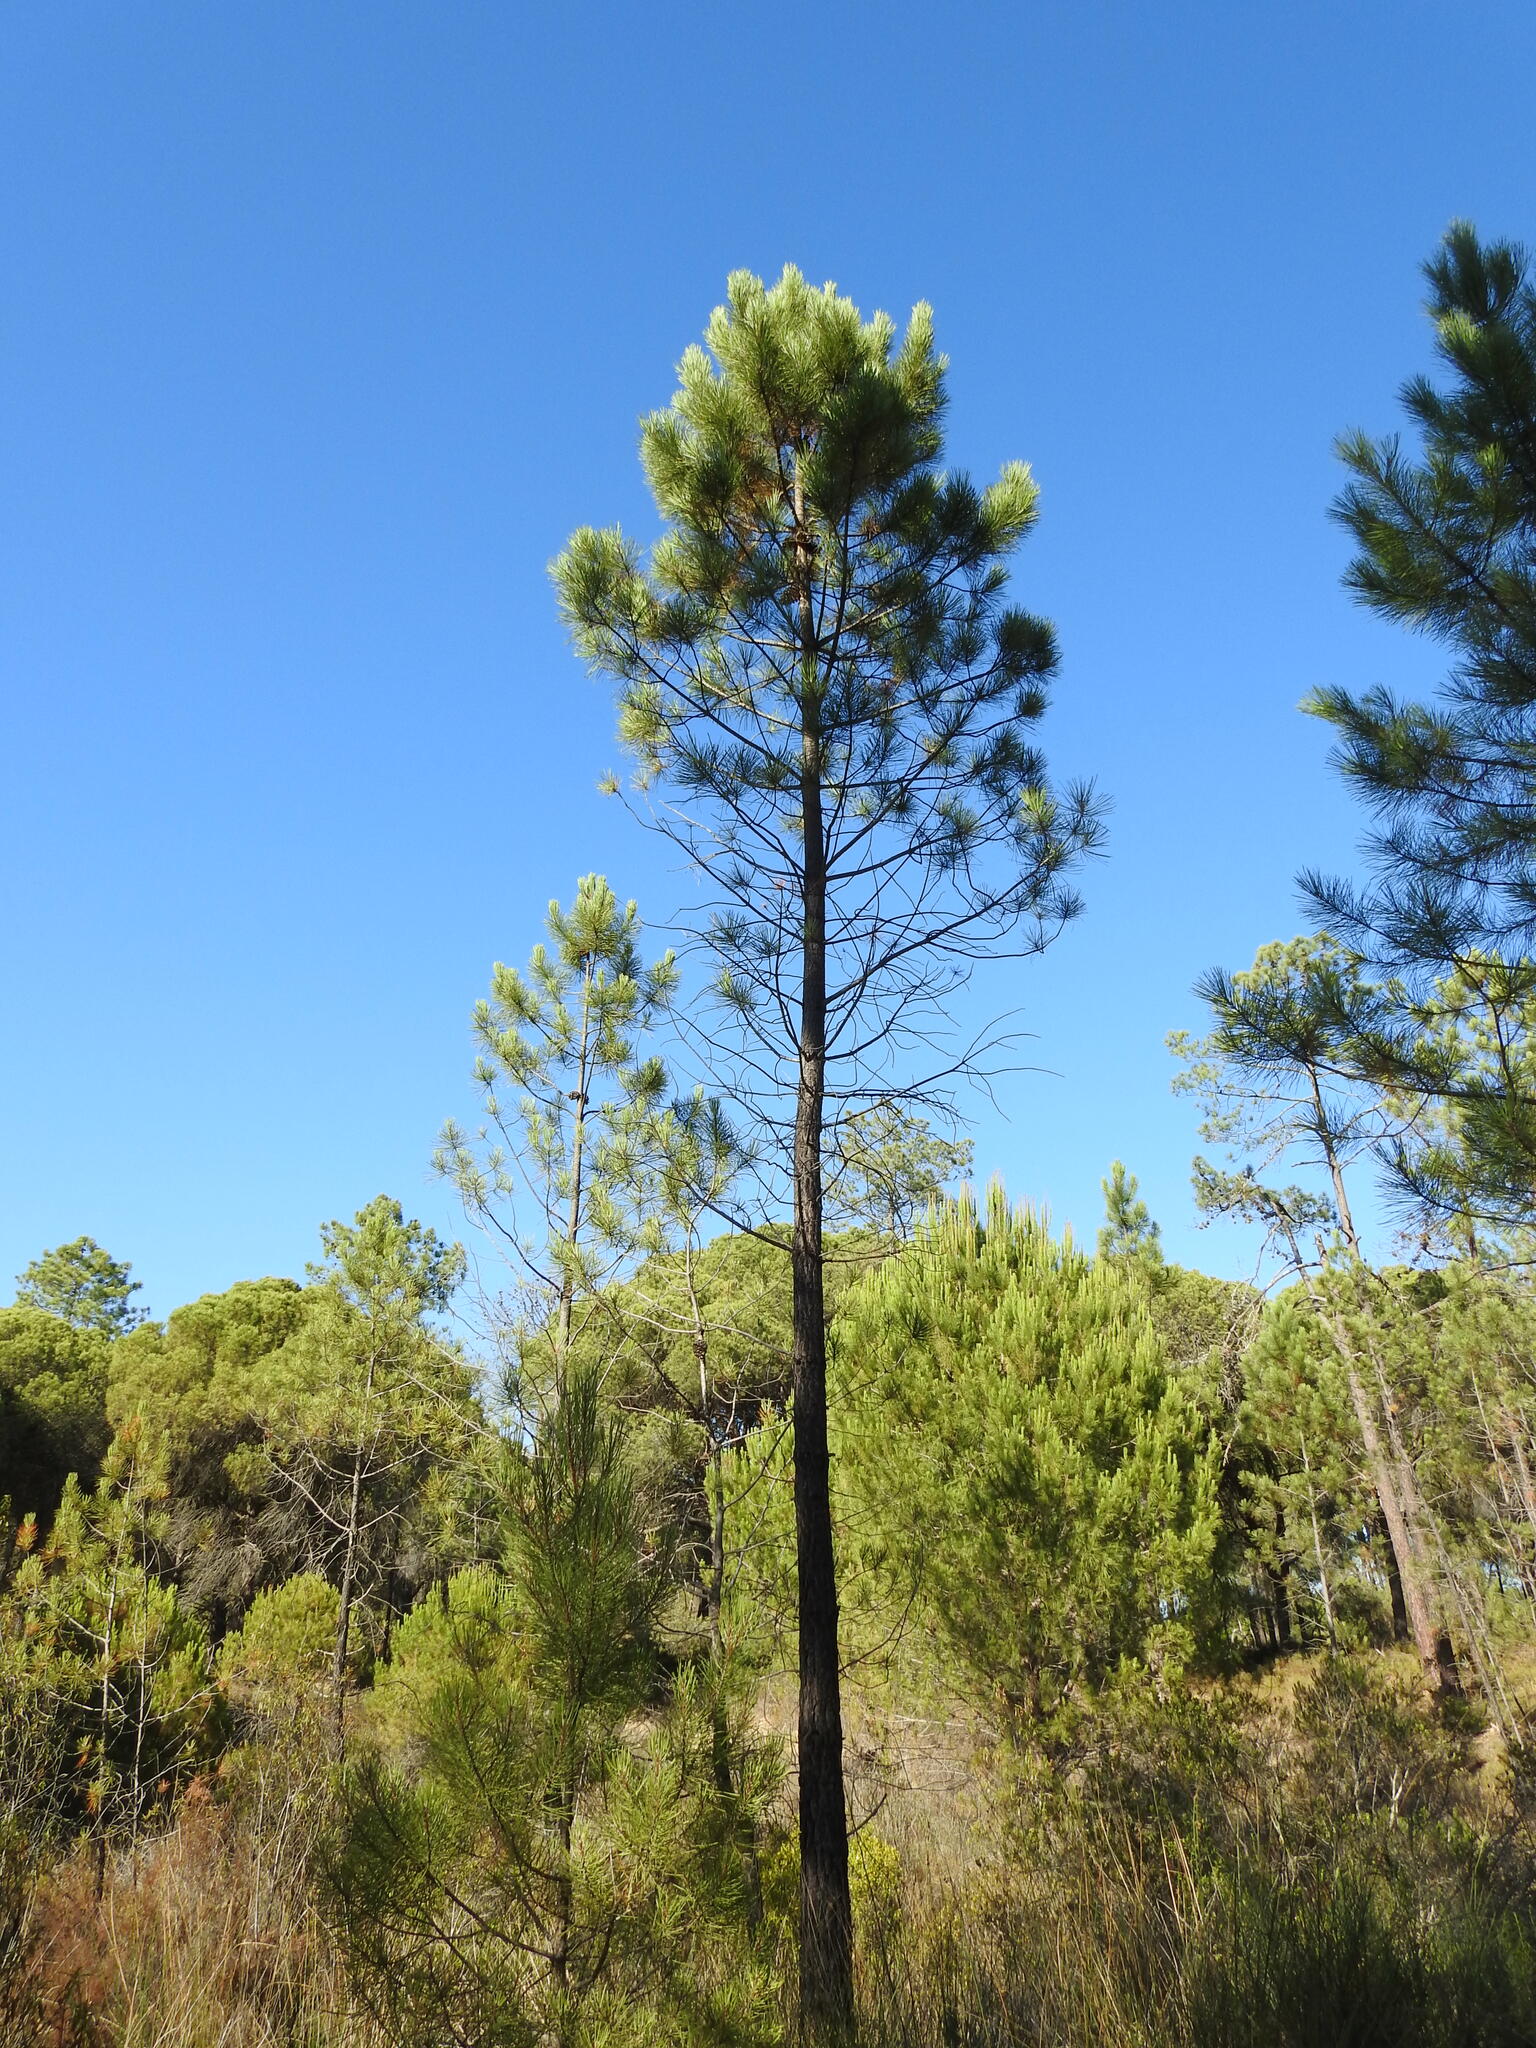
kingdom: Plantae
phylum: Tracheophyta
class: Pinopsida
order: Pinales
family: Pinaceae
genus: Pinus
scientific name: Pinus pinaster
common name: Maritime pine
